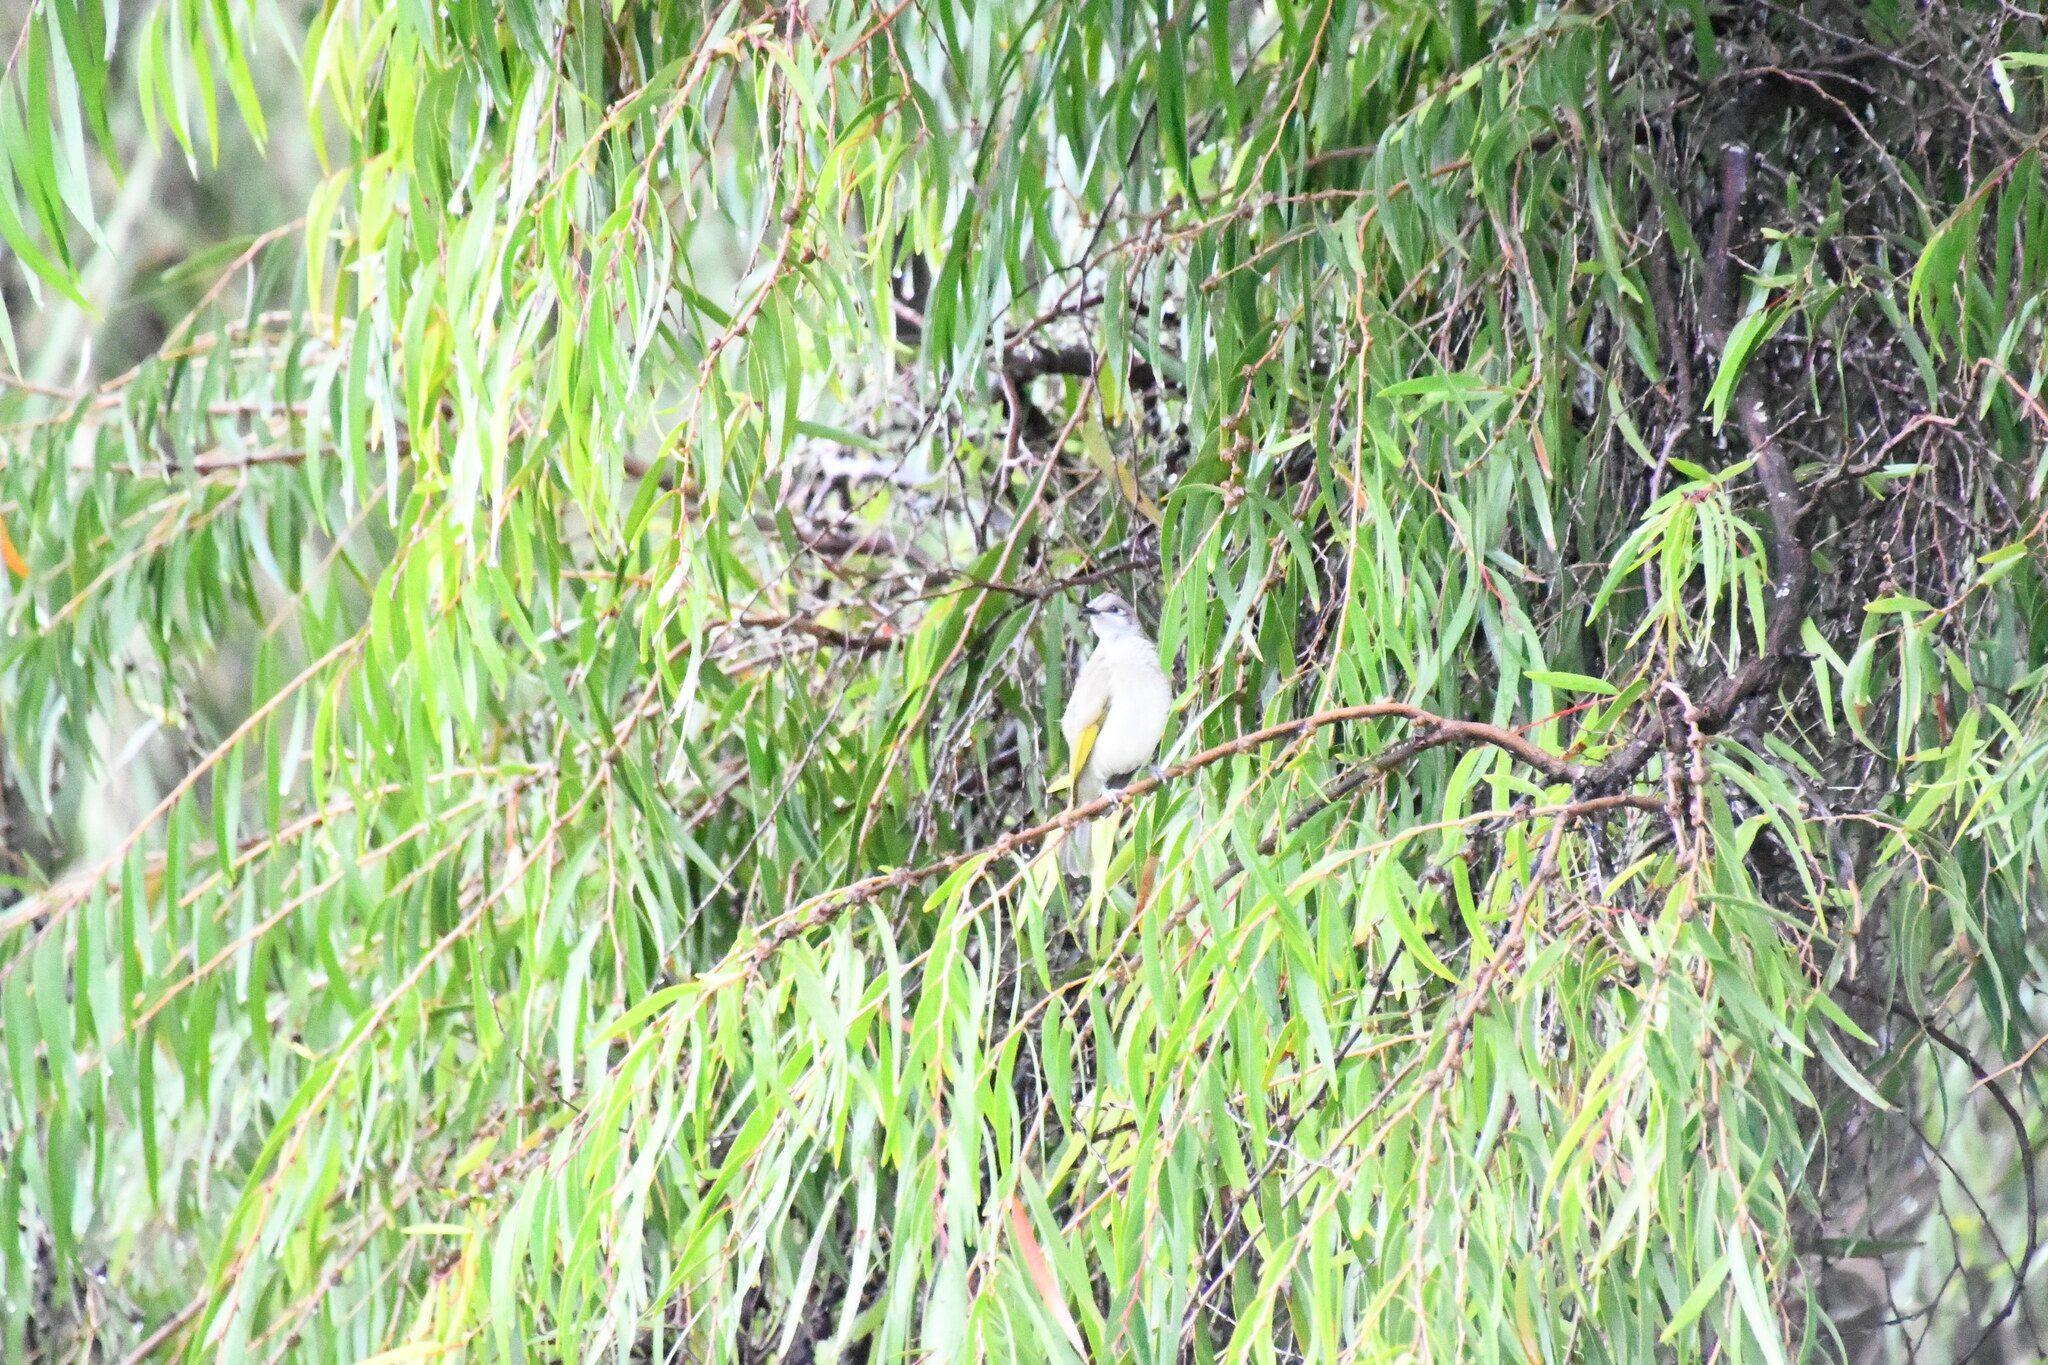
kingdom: Animalia
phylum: Chordata
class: Aves
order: Passeriformes
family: Meliphagidae
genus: Lichmera
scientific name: Lichmera indistincta
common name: Brown honeyeater
